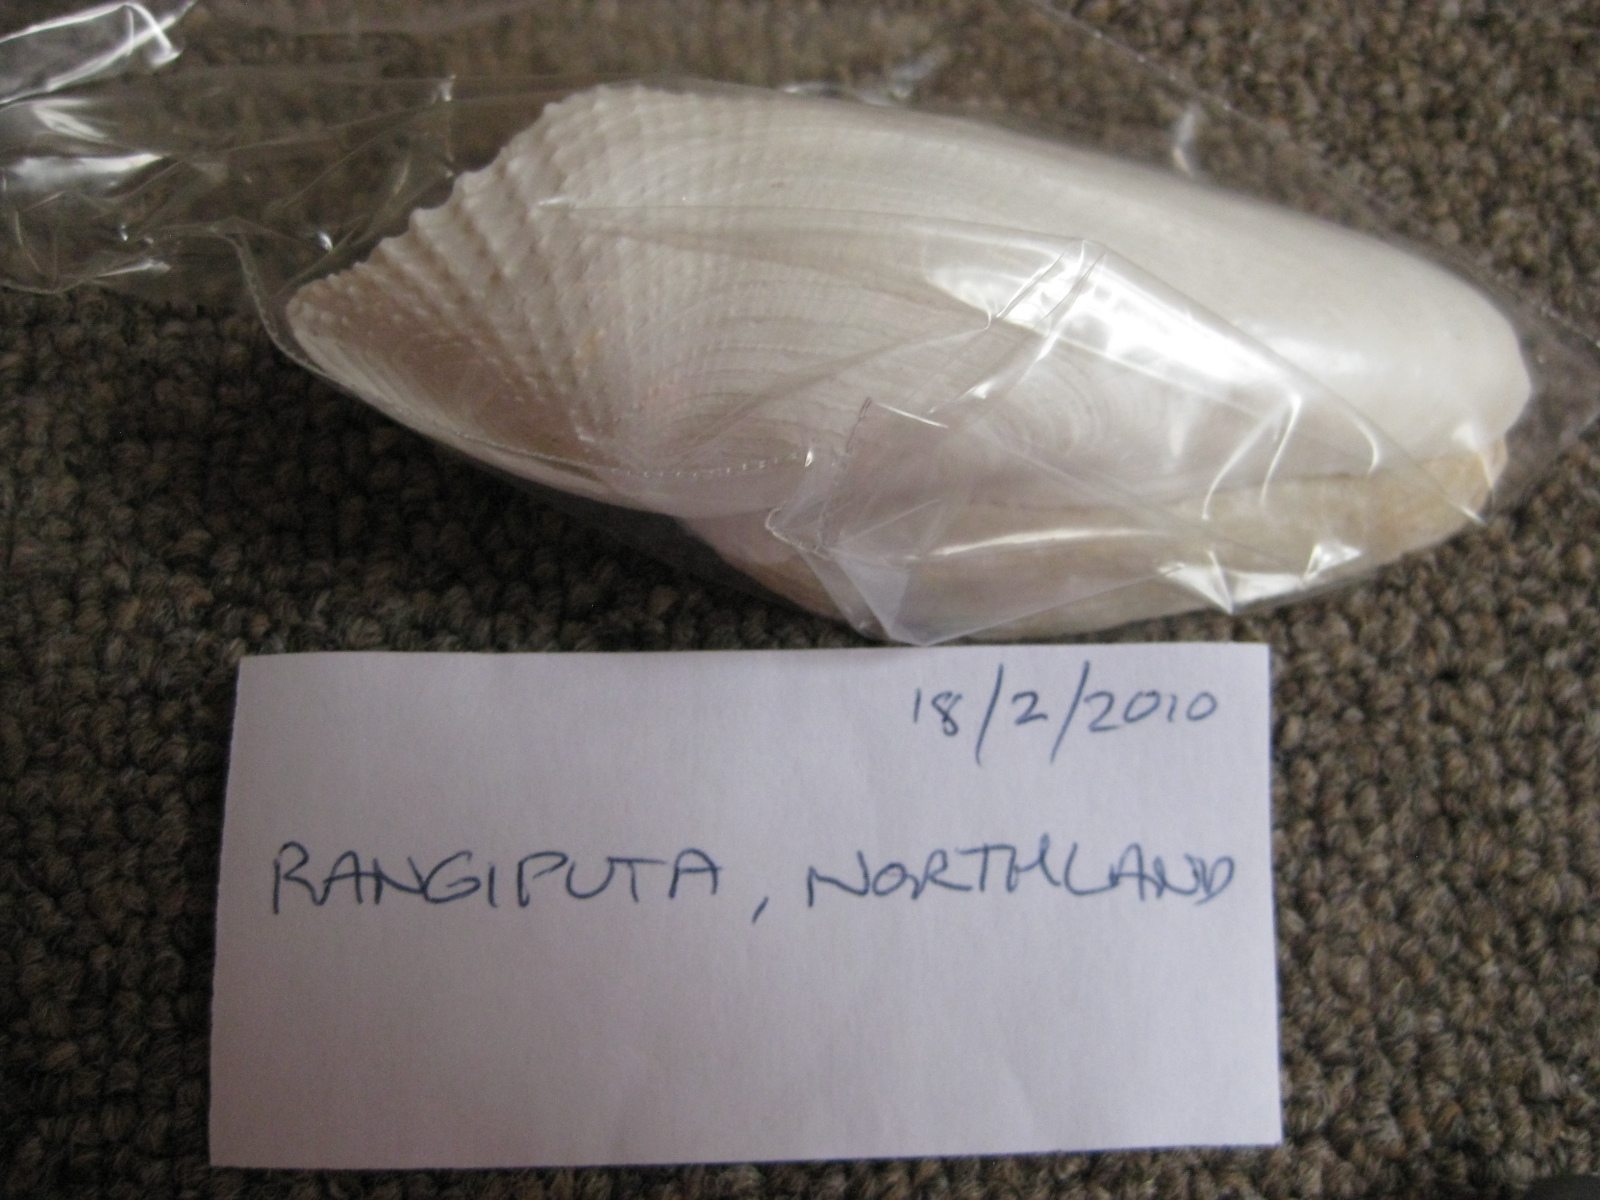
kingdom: Animalia
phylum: Mollusca
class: Bivalvia
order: Myida
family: Pholadidae
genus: Barnea
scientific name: Barnea similis
